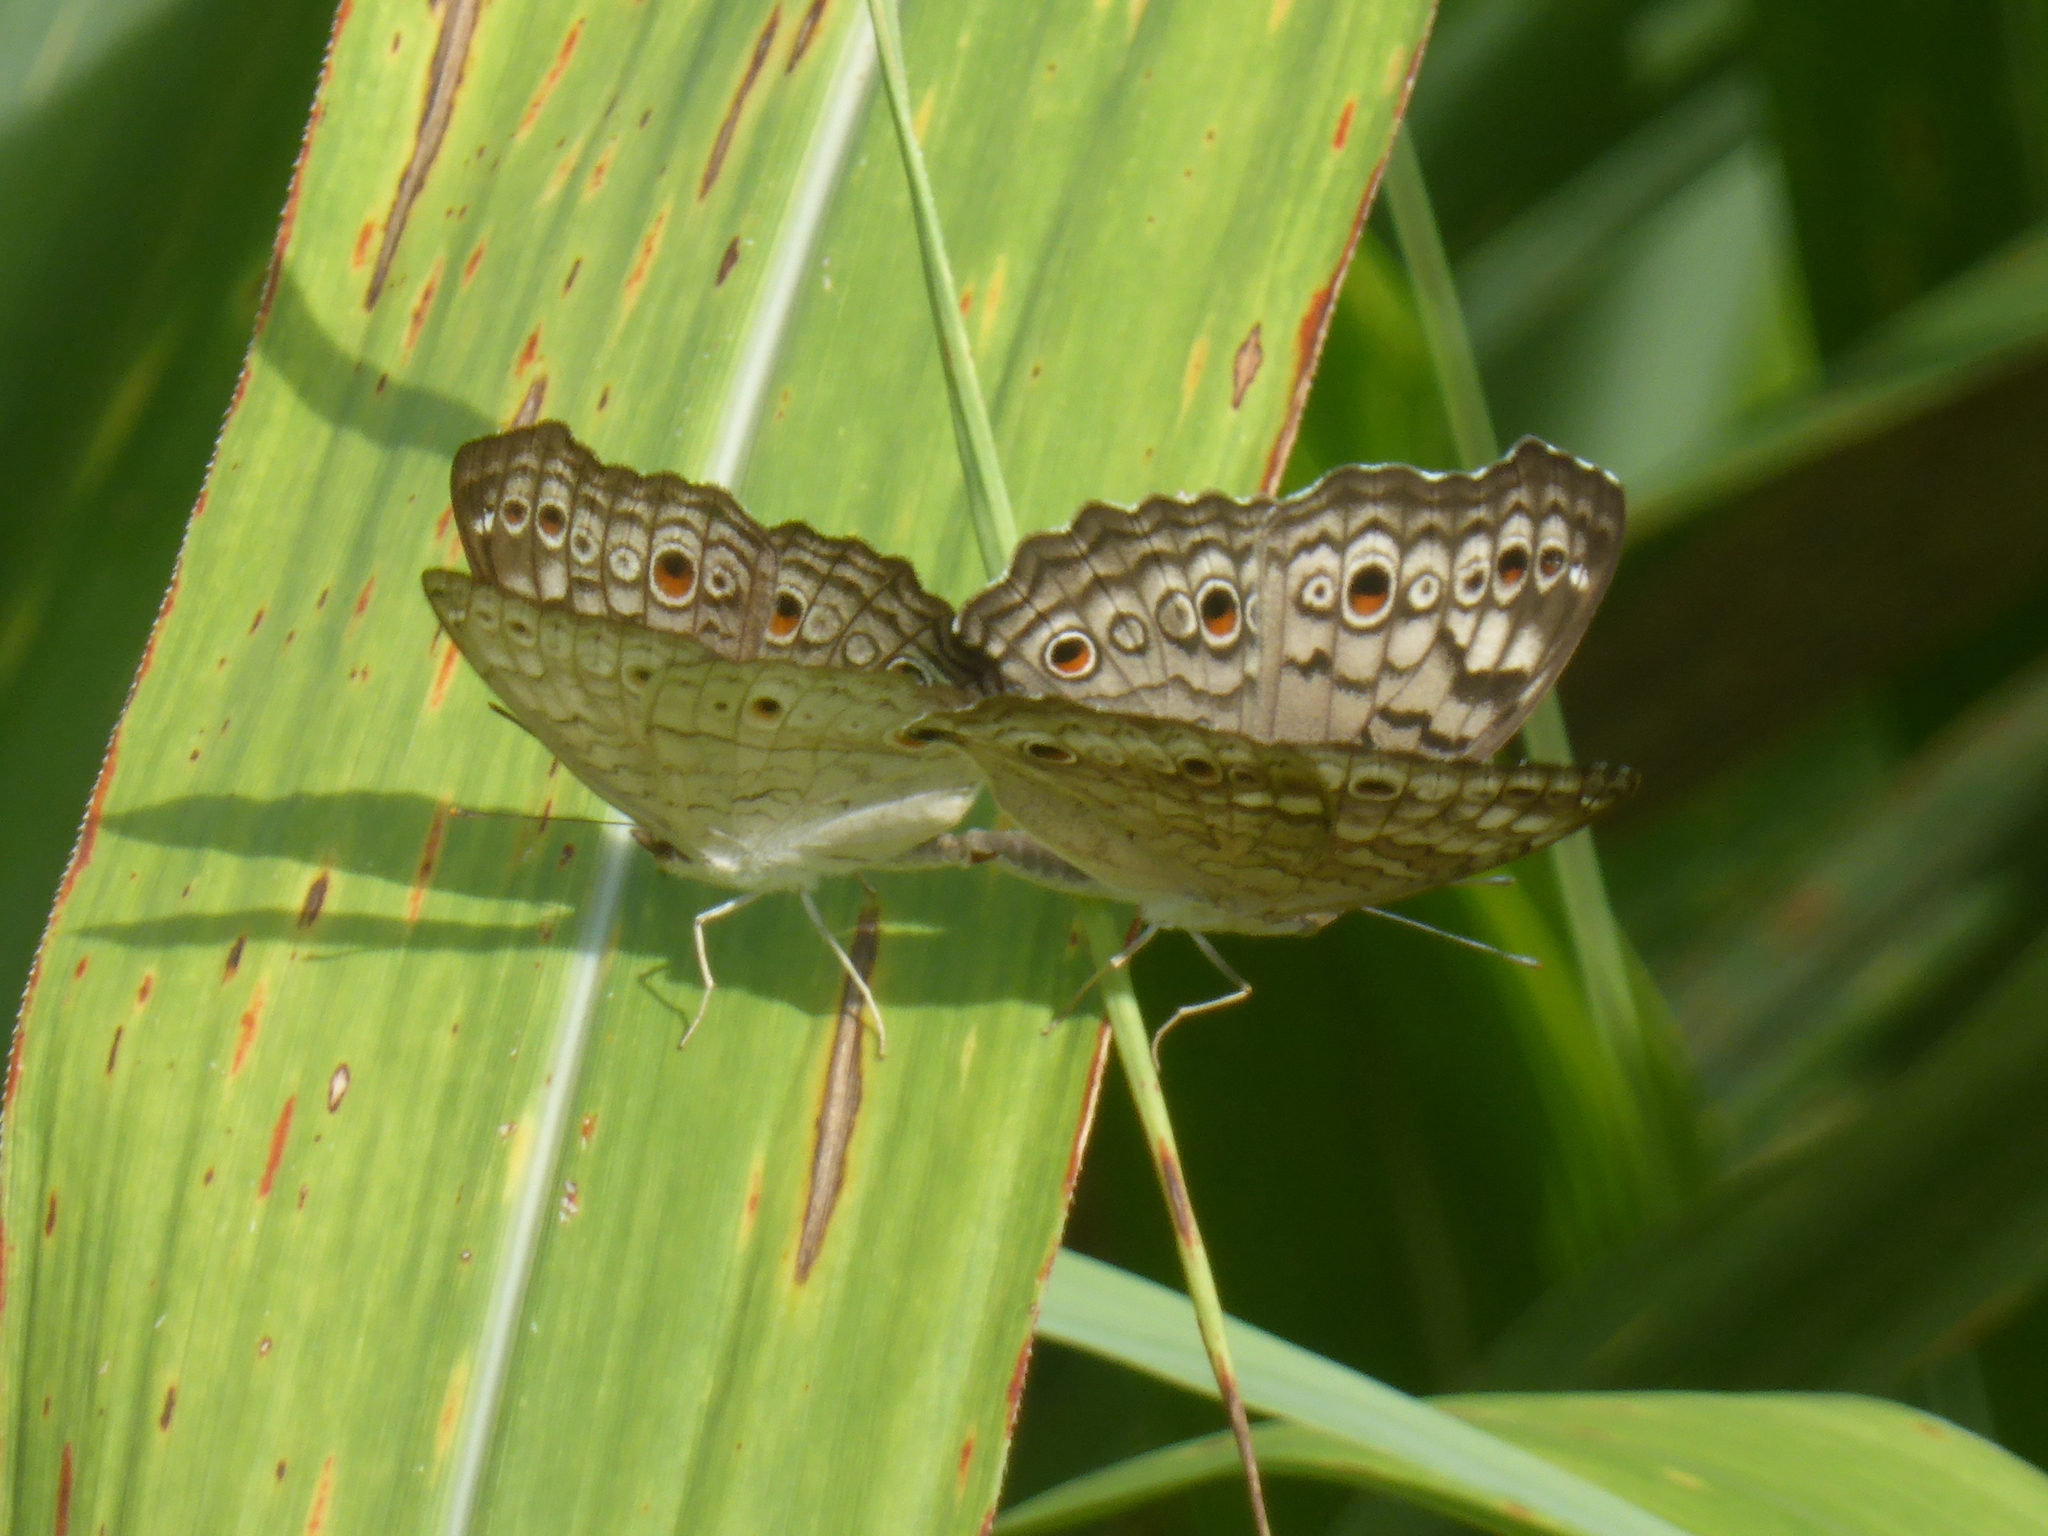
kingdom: Animalia
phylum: Arthropoda
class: Insecta
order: Lepidoptera
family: Nymphalidae
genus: Junonia
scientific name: Junonia atlites
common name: Grey pansy
